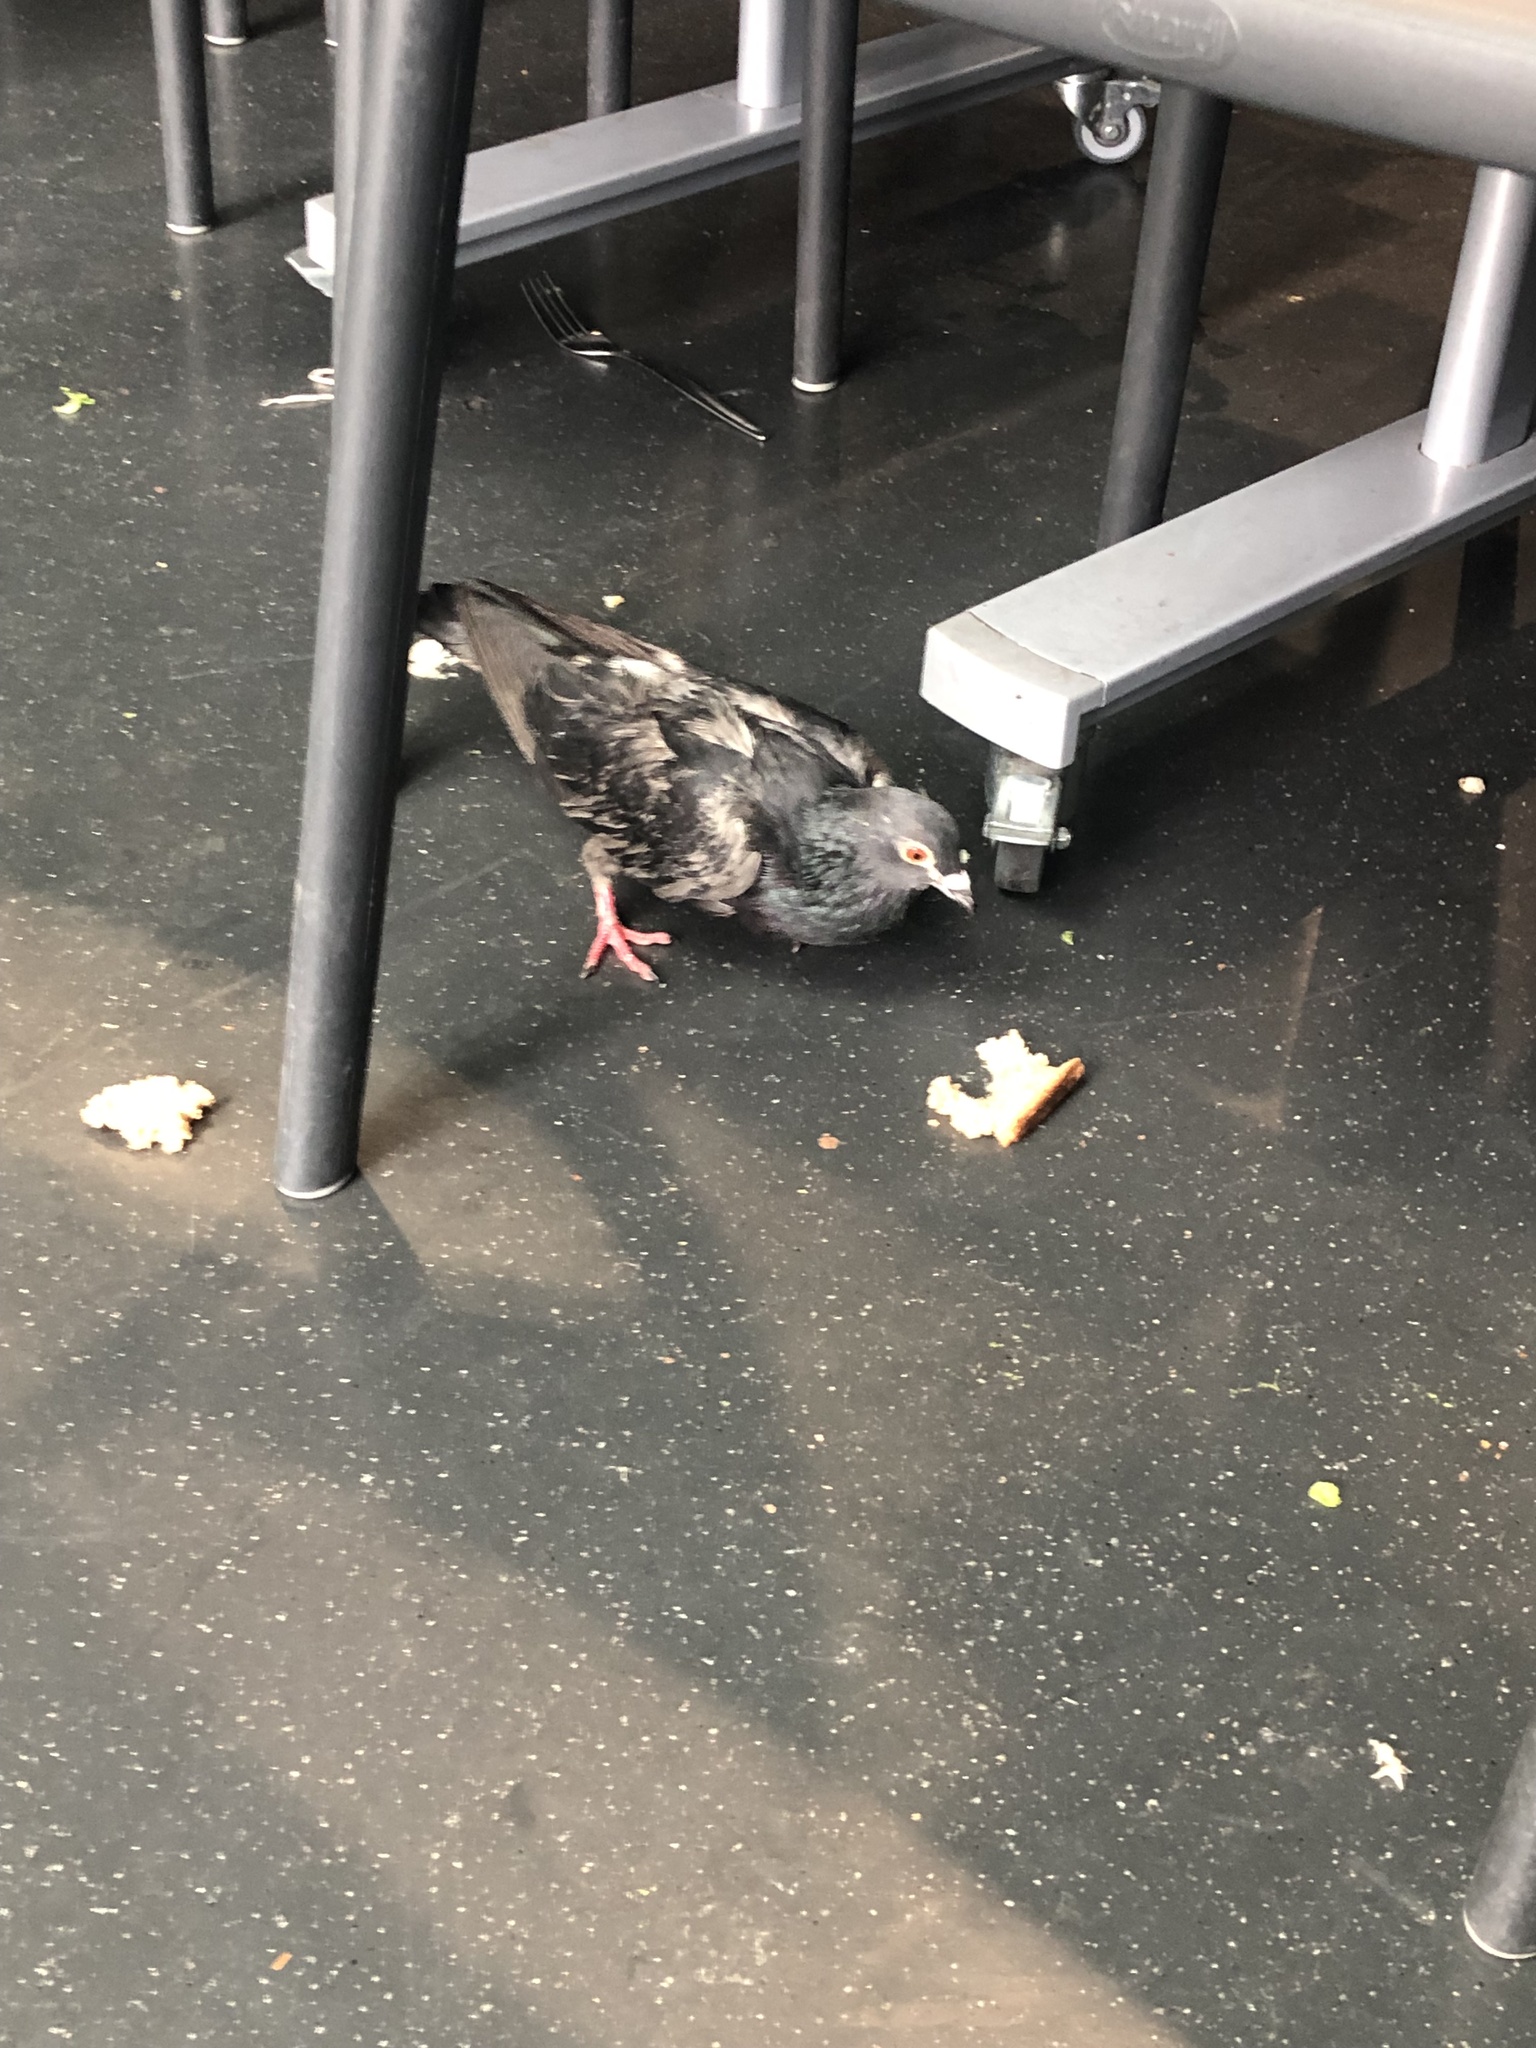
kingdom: Animalia
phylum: Chordata
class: Aves
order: Columbiformes
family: Columbidae
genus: Columba
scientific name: Columba livia
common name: Rock pigeon
